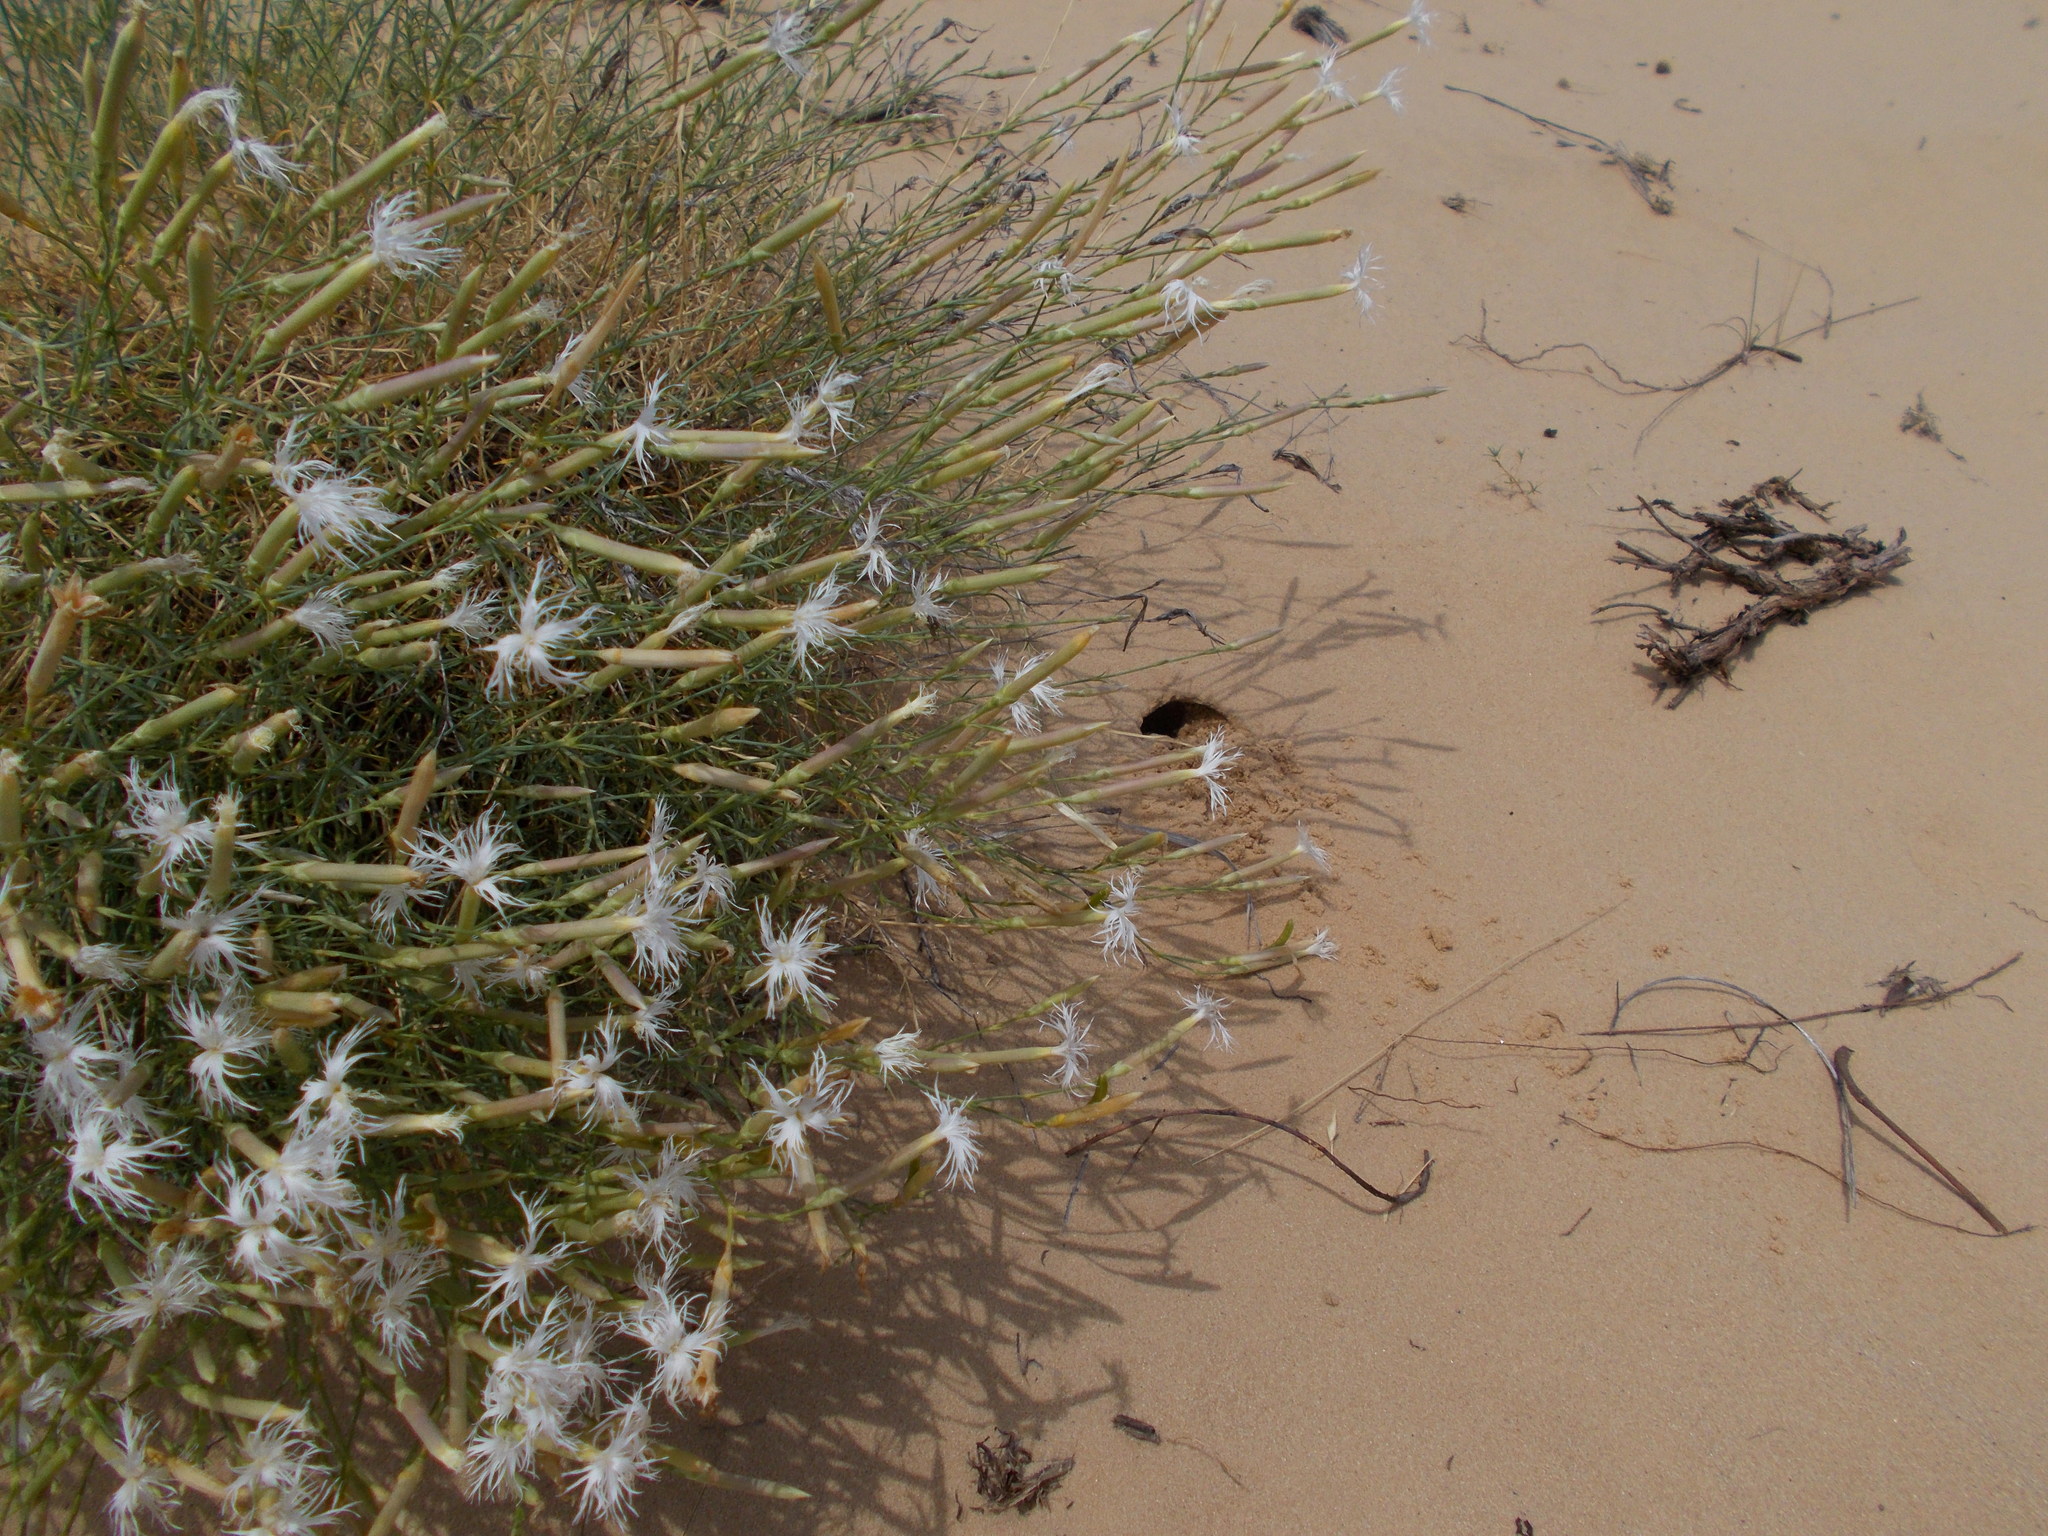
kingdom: Plantae
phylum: Tracheophyta
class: Magnoliopsida
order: Caryophyllales
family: Caryophyllaceae
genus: Dianthus
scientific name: Dianthus squarrosus
